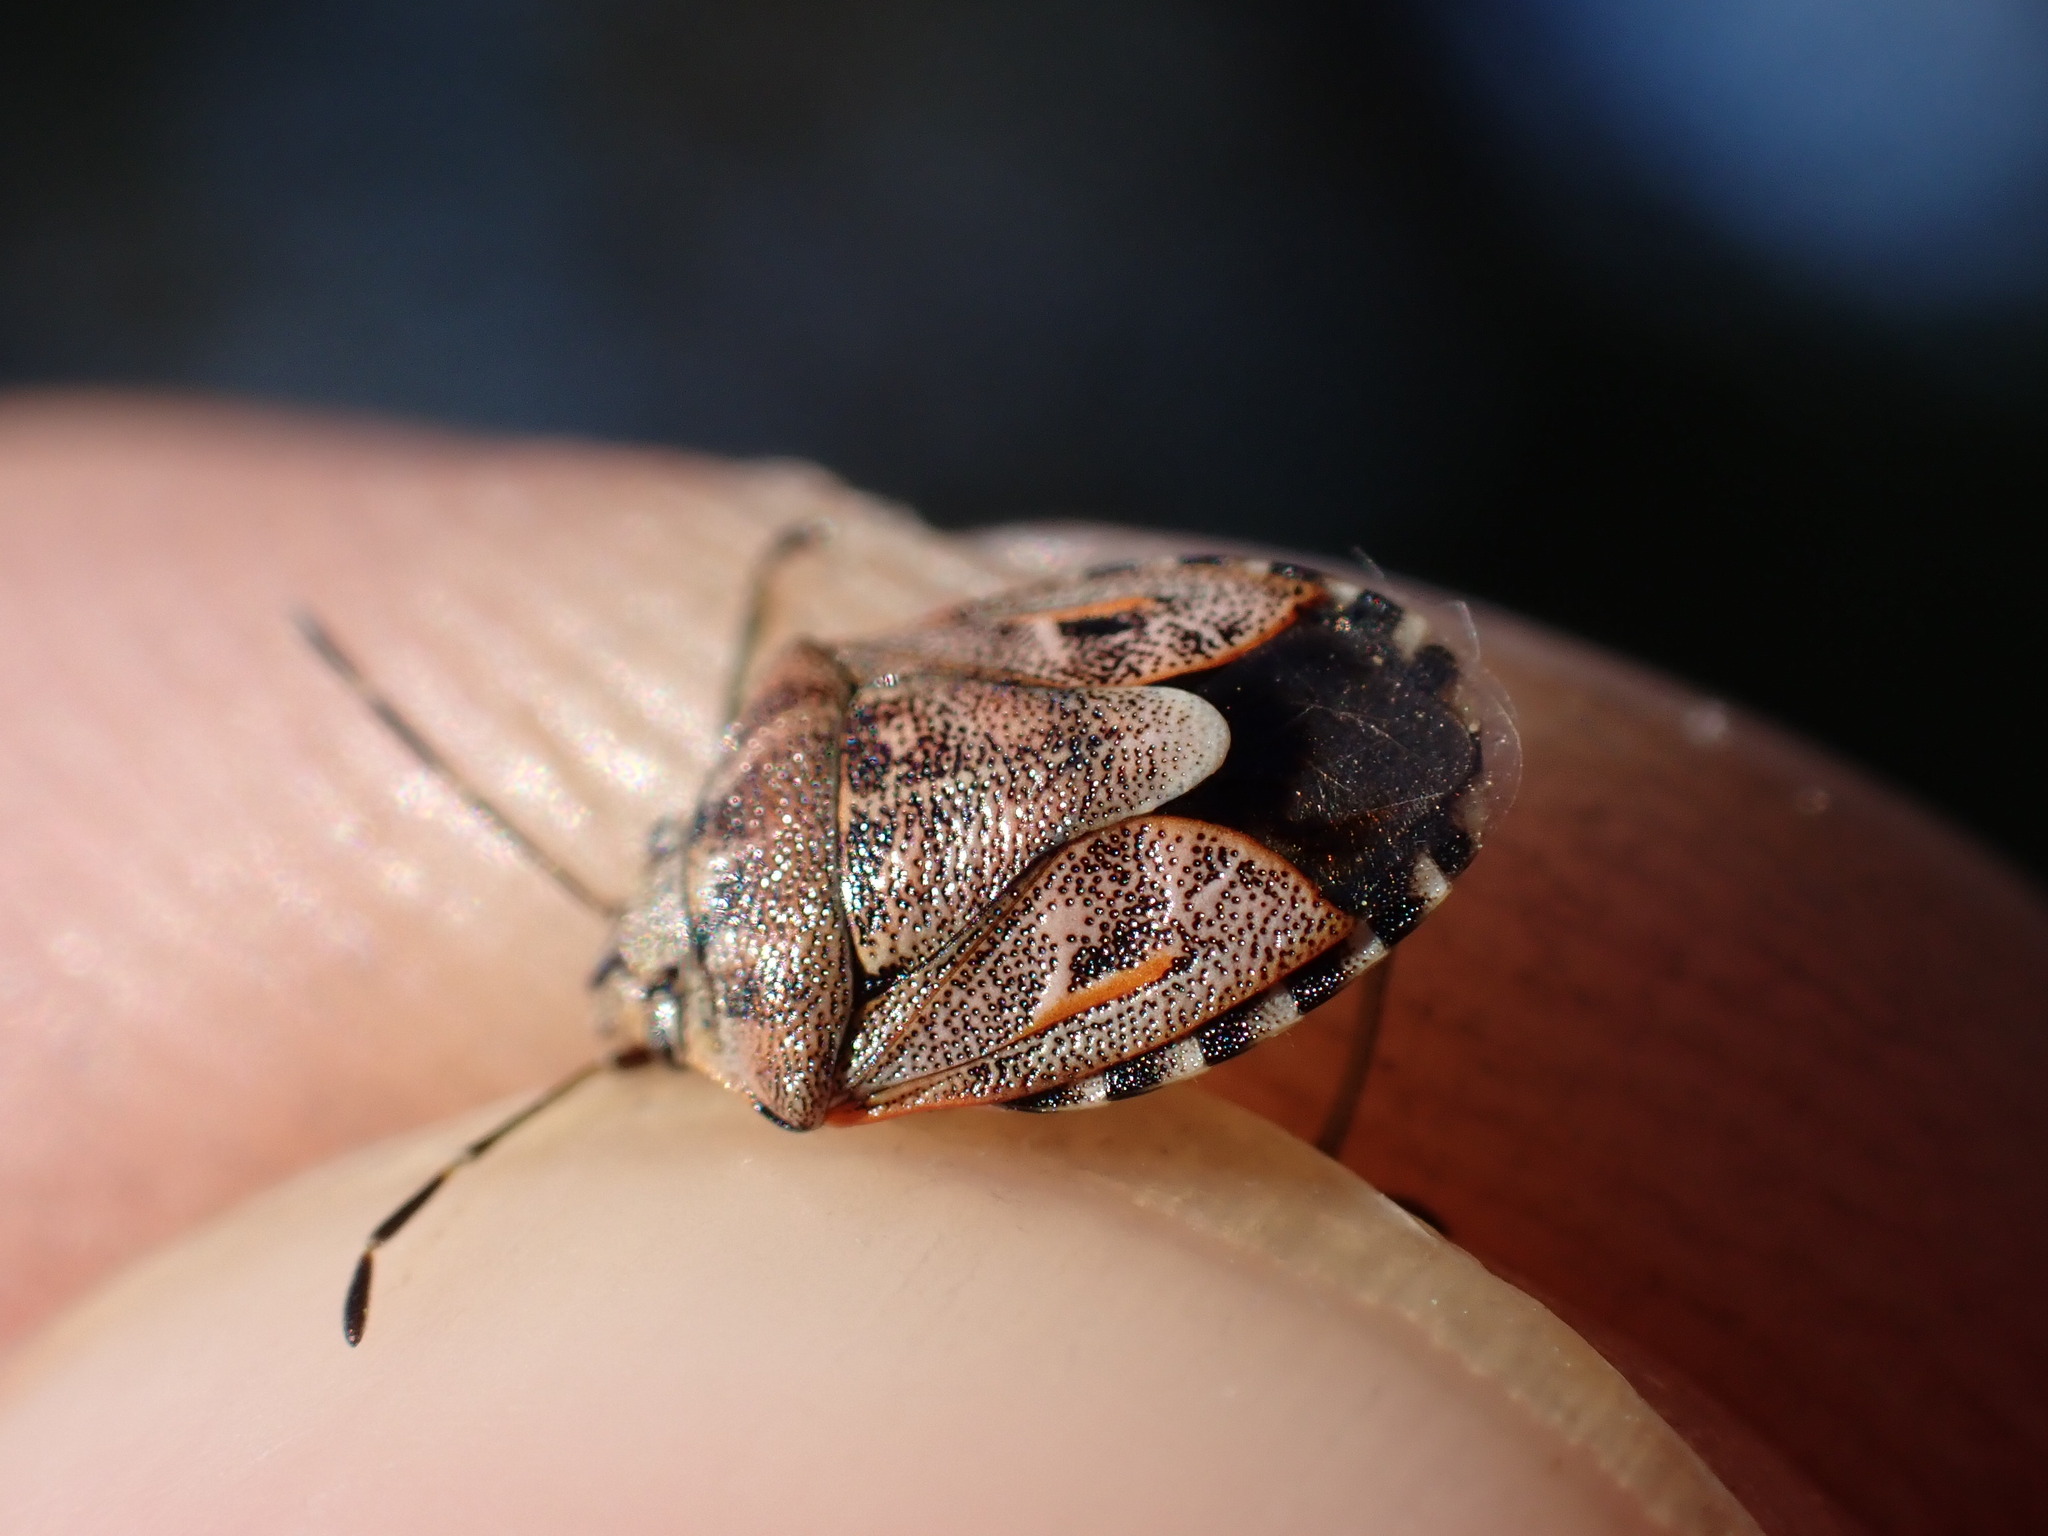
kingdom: Animalia
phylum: Arthropoda
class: Insecta
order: Hemiptera
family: Pentatomidae
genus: Holcogaster
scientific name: Holcogaster fibulata
